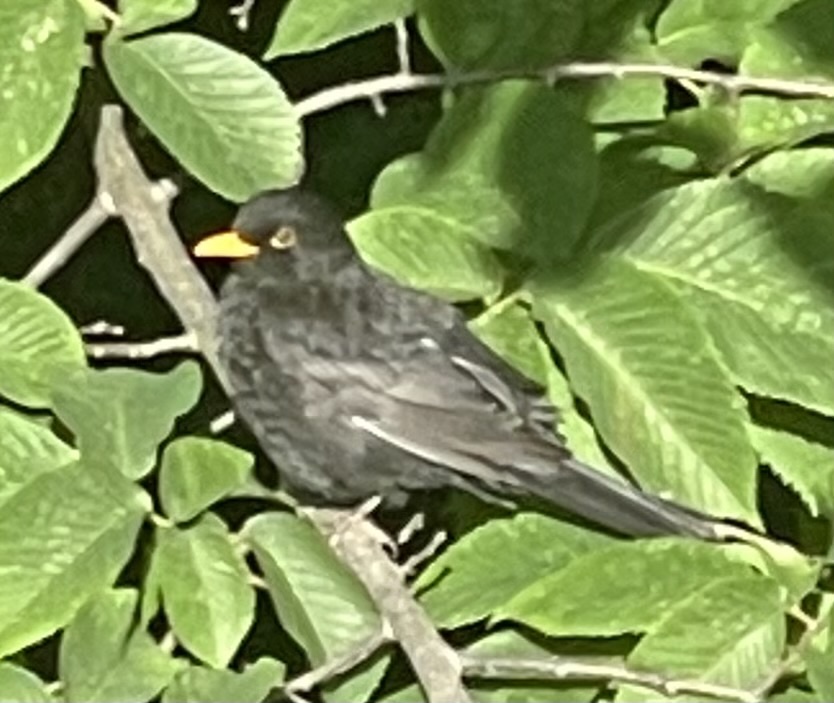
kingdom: Animalia
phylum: Chordata
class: Aves
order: Passeriformes
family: Turdidae
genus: Turdus
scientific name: Turdus merula
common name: Common blackbird
